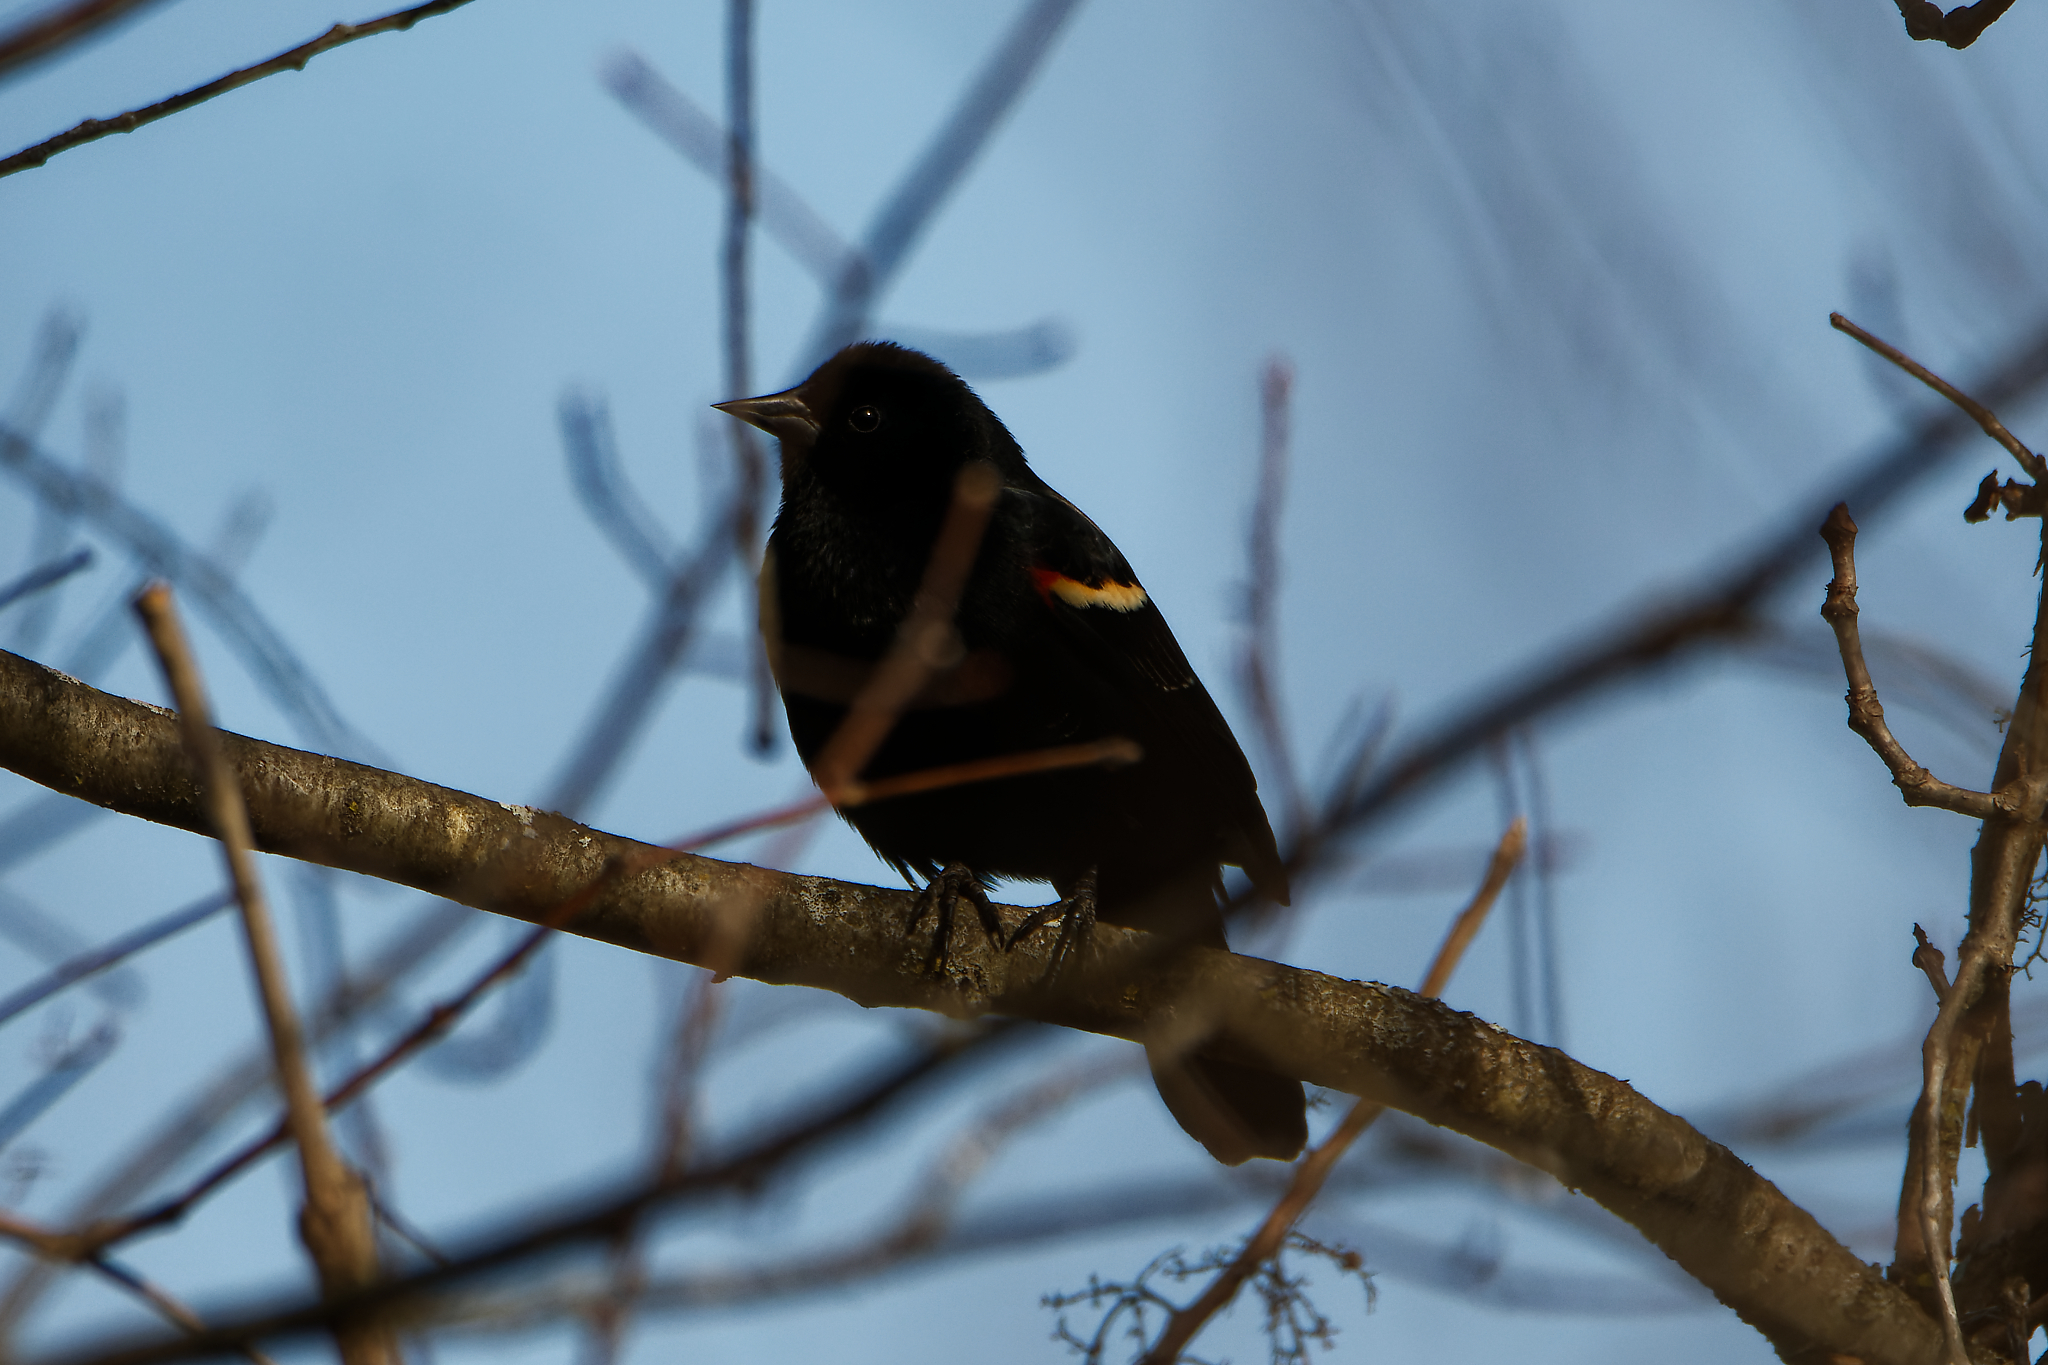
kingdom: Animalia
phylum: Chordata
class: Aves
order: Passeriformes
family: Icteridae
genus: Agelaius
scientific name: Agelaius phoeniceus
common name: Red-winged blackbird
